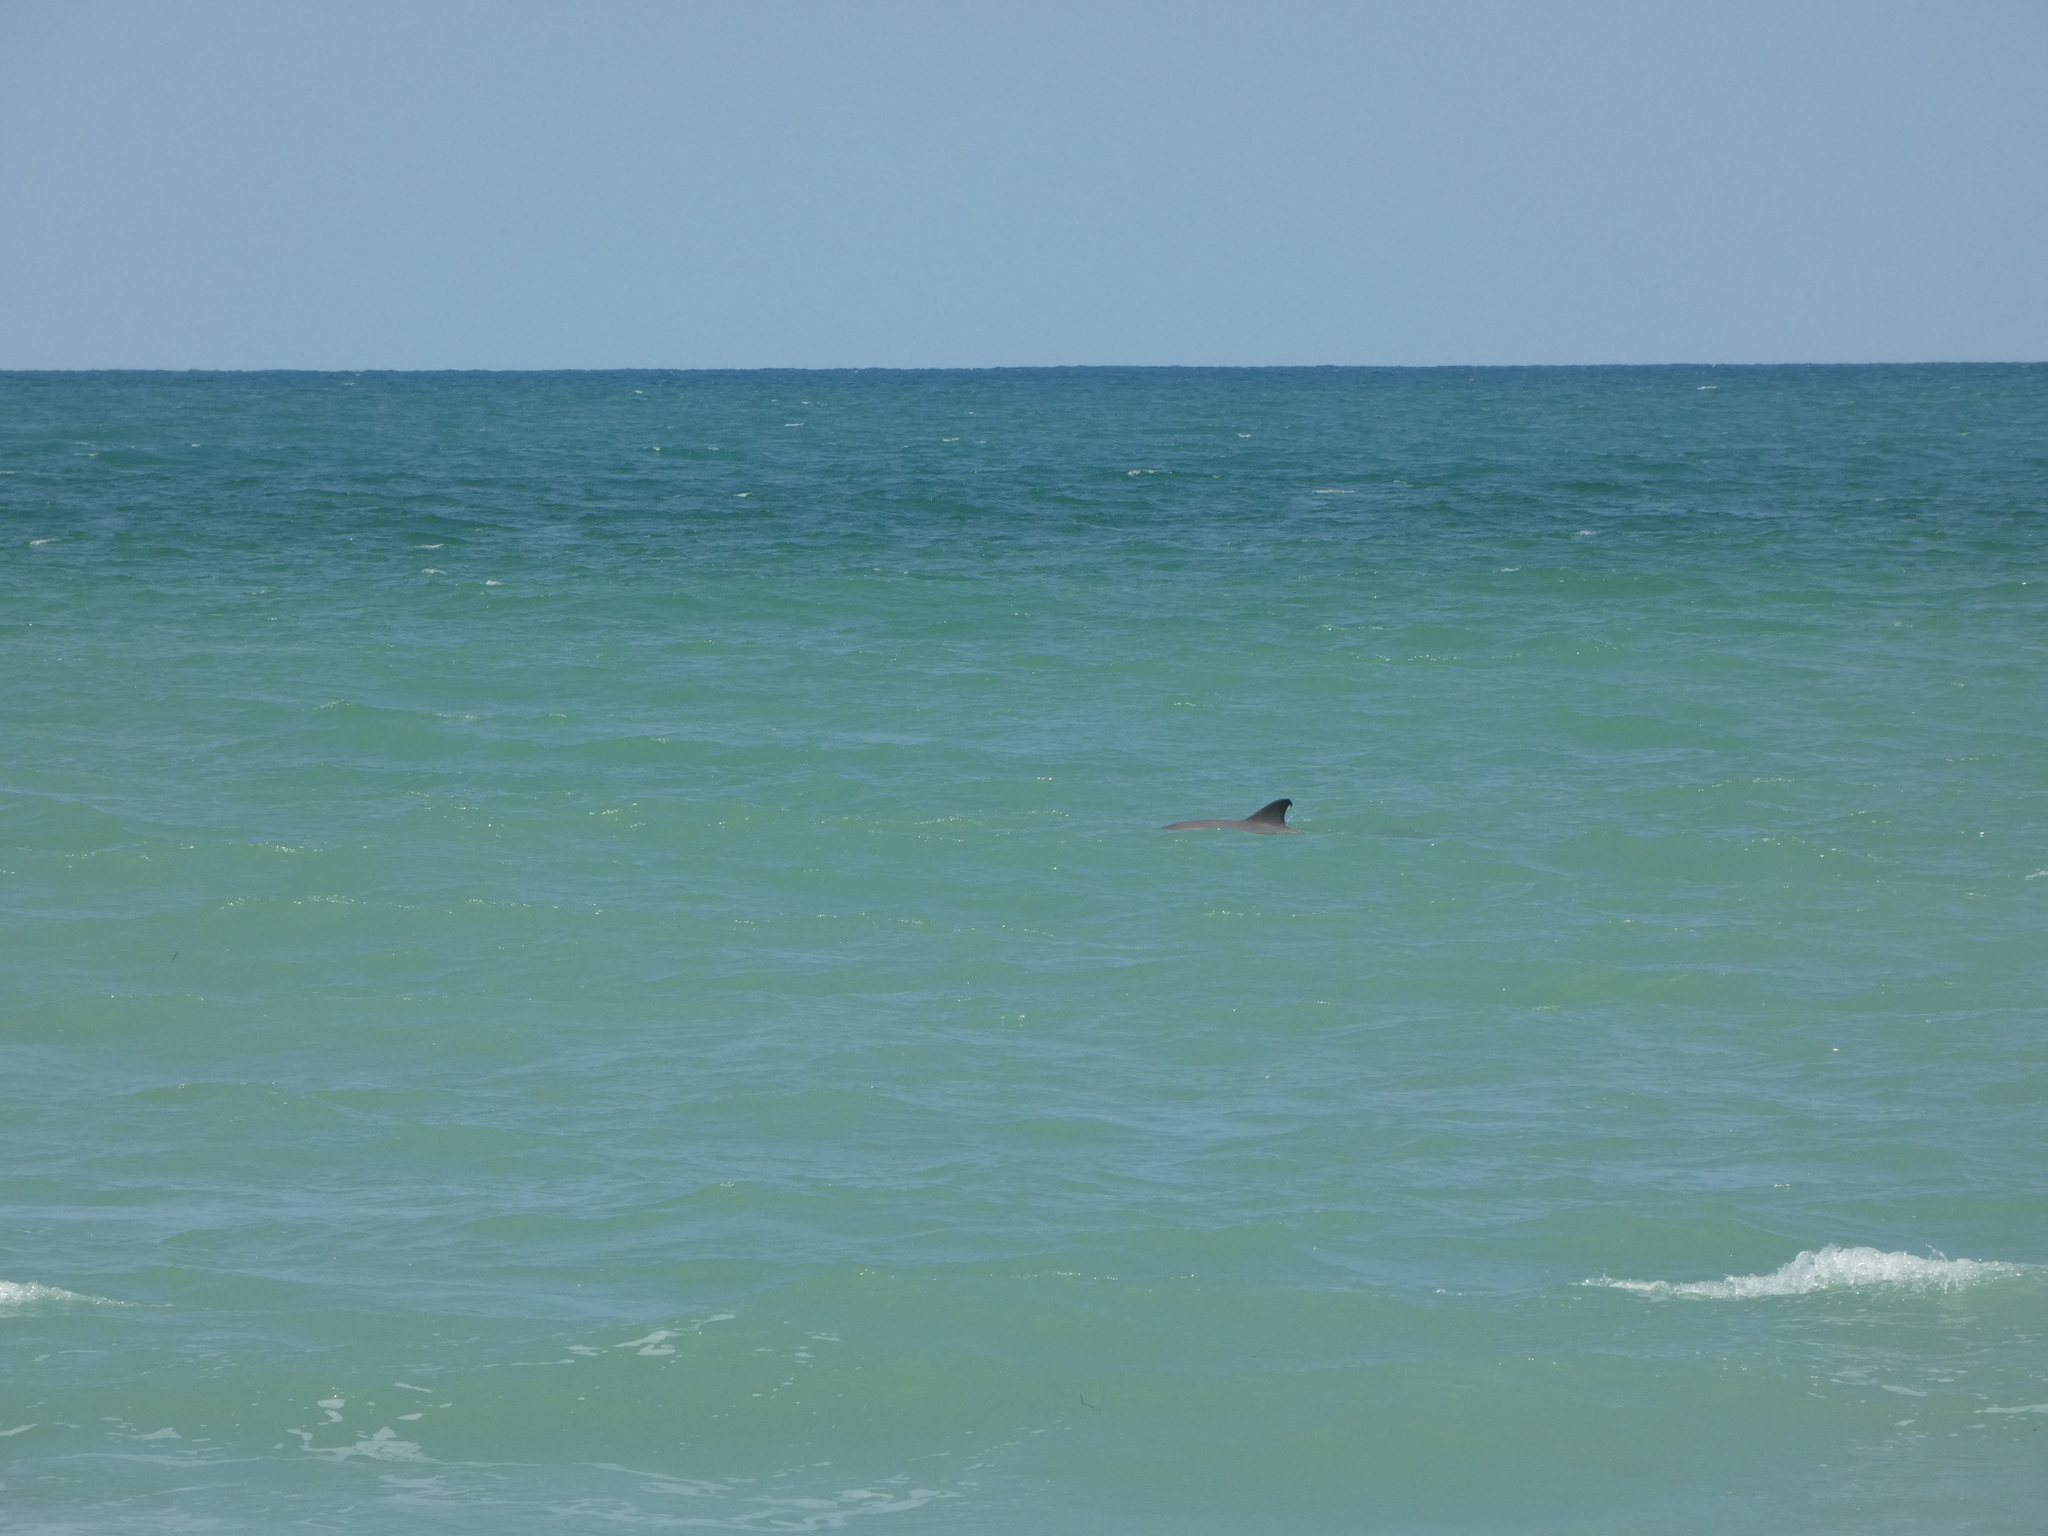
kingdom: Animalia
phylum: Chordata
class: Mammalia
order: Cetacea
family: Delphinidae
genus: Tursiops
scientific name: Tursiops truncatus
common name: Bottlenose dolphin
